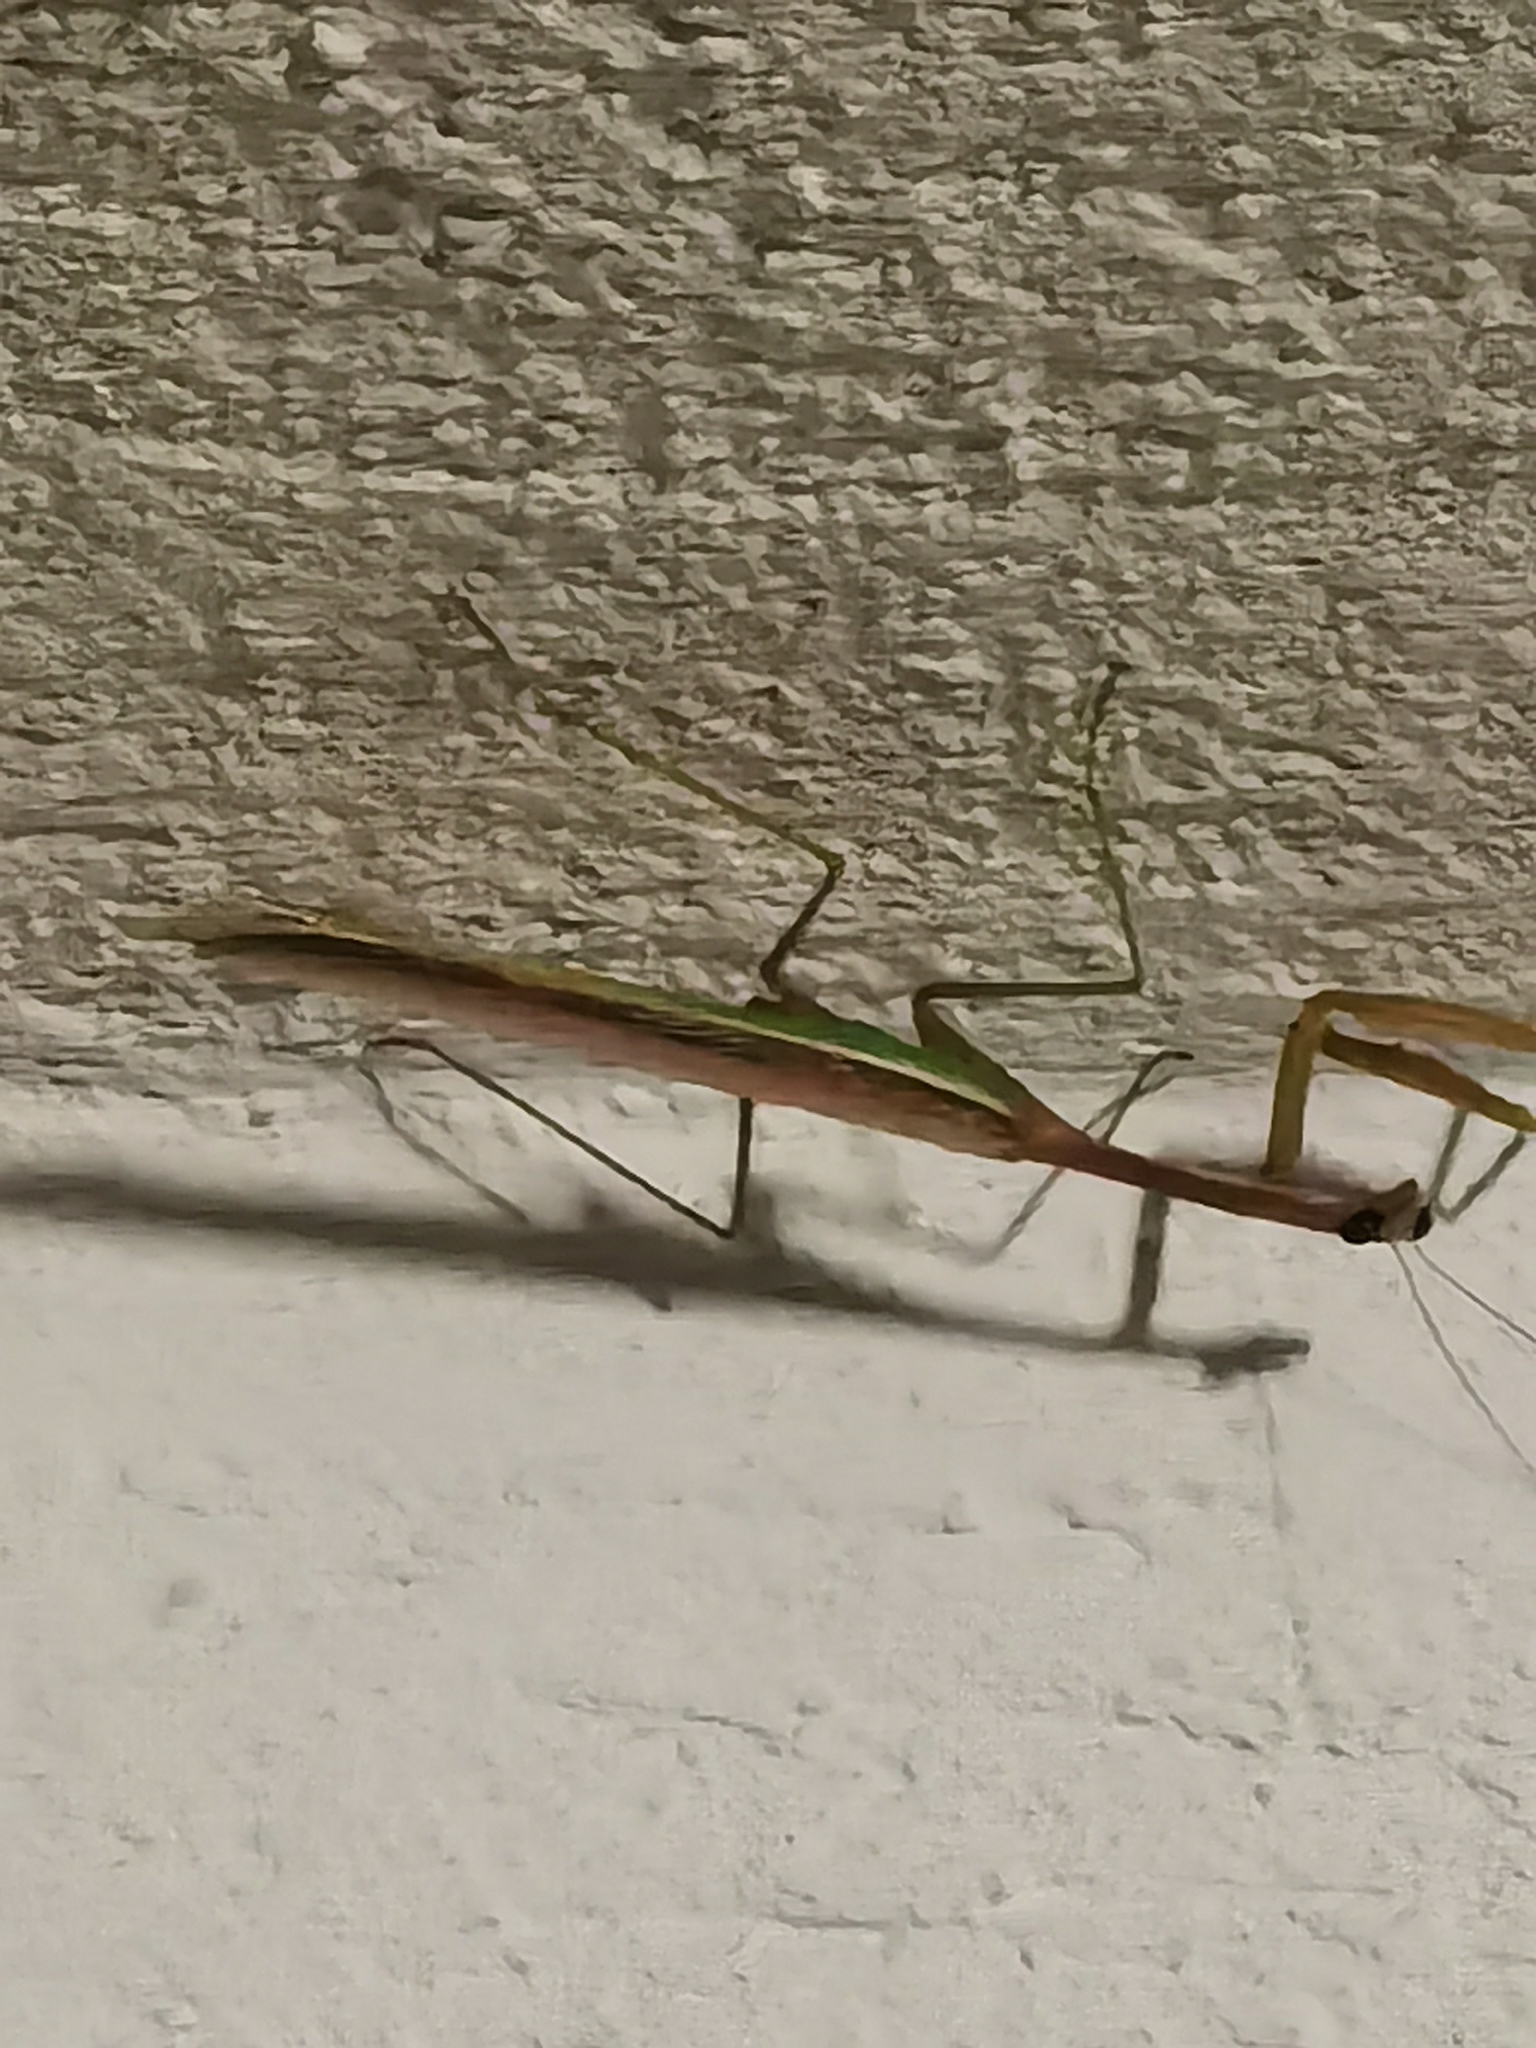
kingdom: Animalia
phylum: Arthropoda
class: Insecta
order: Mantodea
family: Mantidae
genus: Stagmomantis
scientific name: Stagmomantis montana
